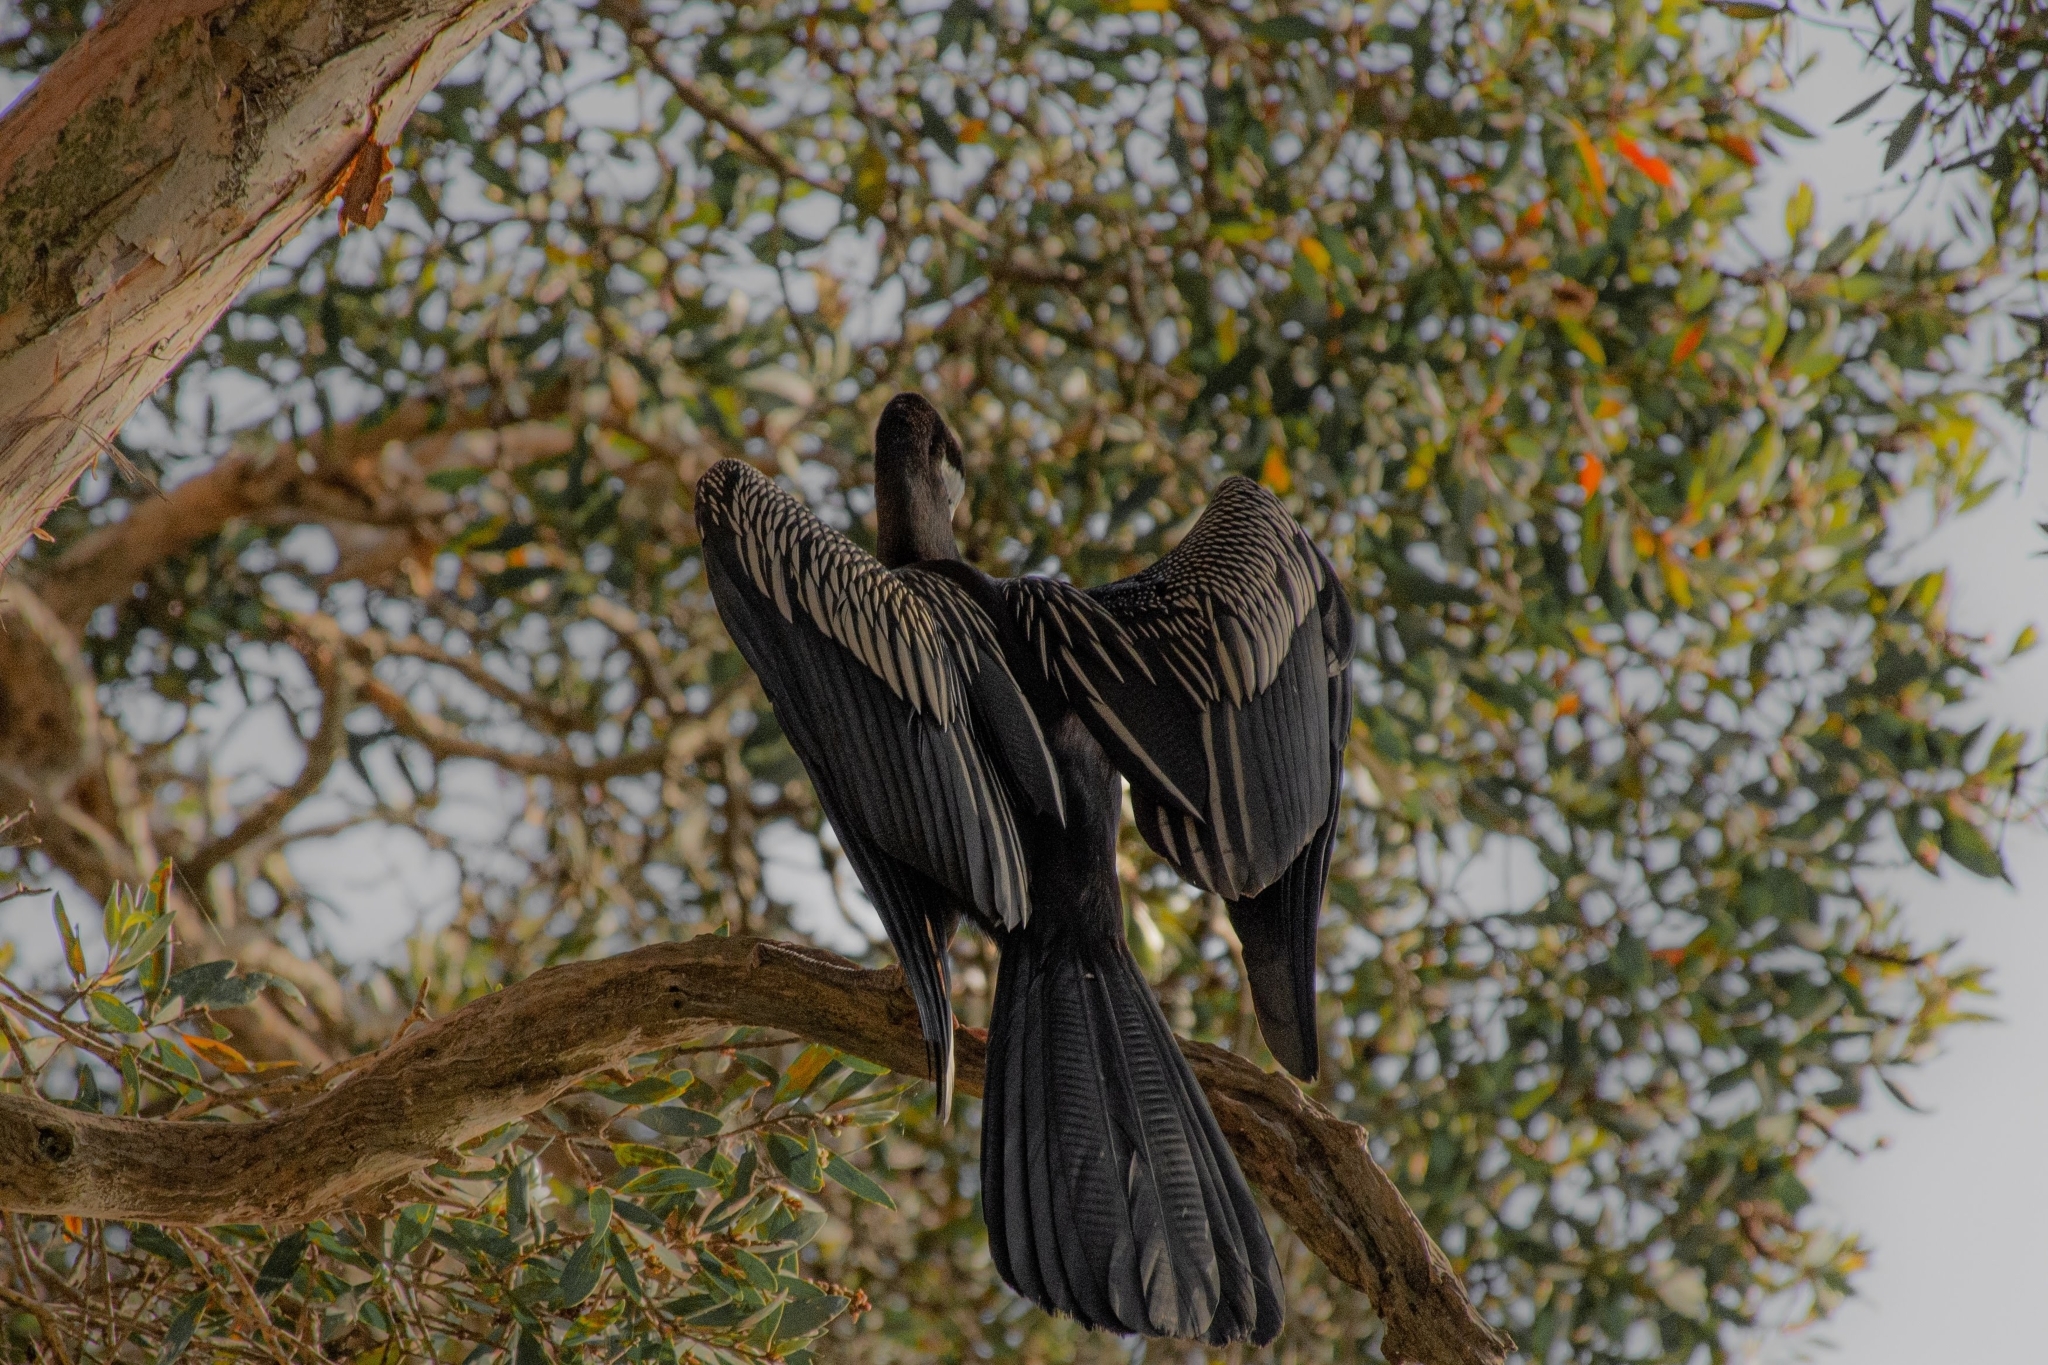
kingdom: Animalia
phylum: Chordata
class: Aves
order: Suliformes
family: Anhingidae
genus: Anhinga
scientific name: Anhinga novaehollandiae
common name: Australasian darter
